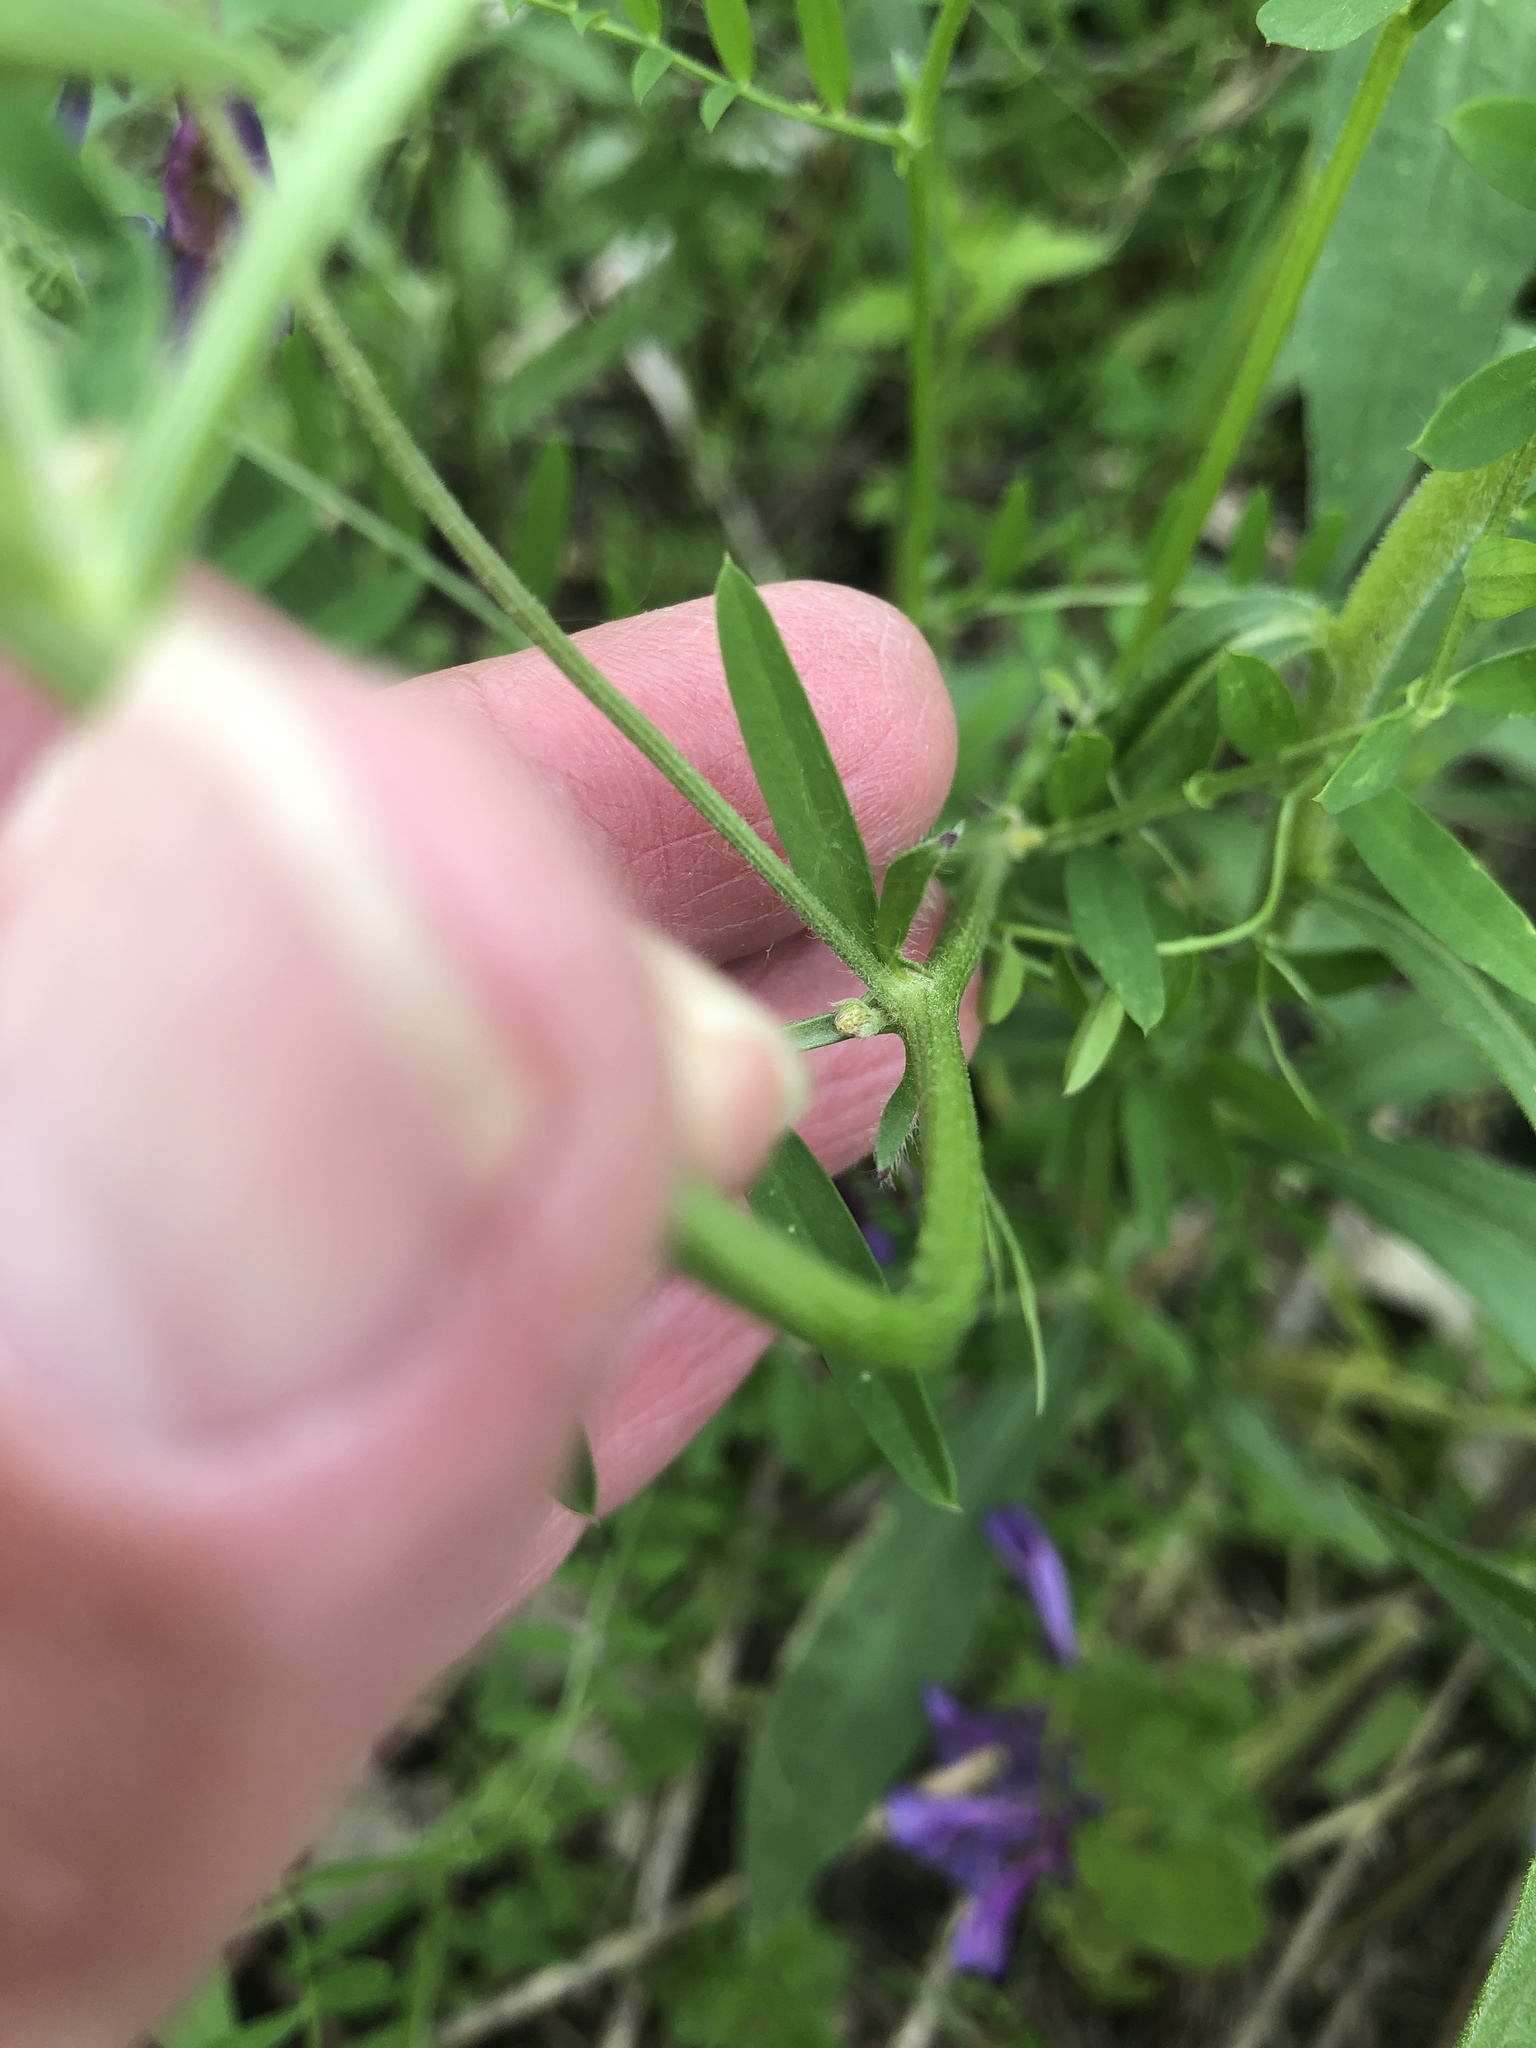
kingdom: Plantae
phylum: Tracheophyta
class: Magnoliopsida
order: Fabales
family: Fabaceae
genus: Vicia
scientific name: Vicia villosa
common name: Fodder vetch
